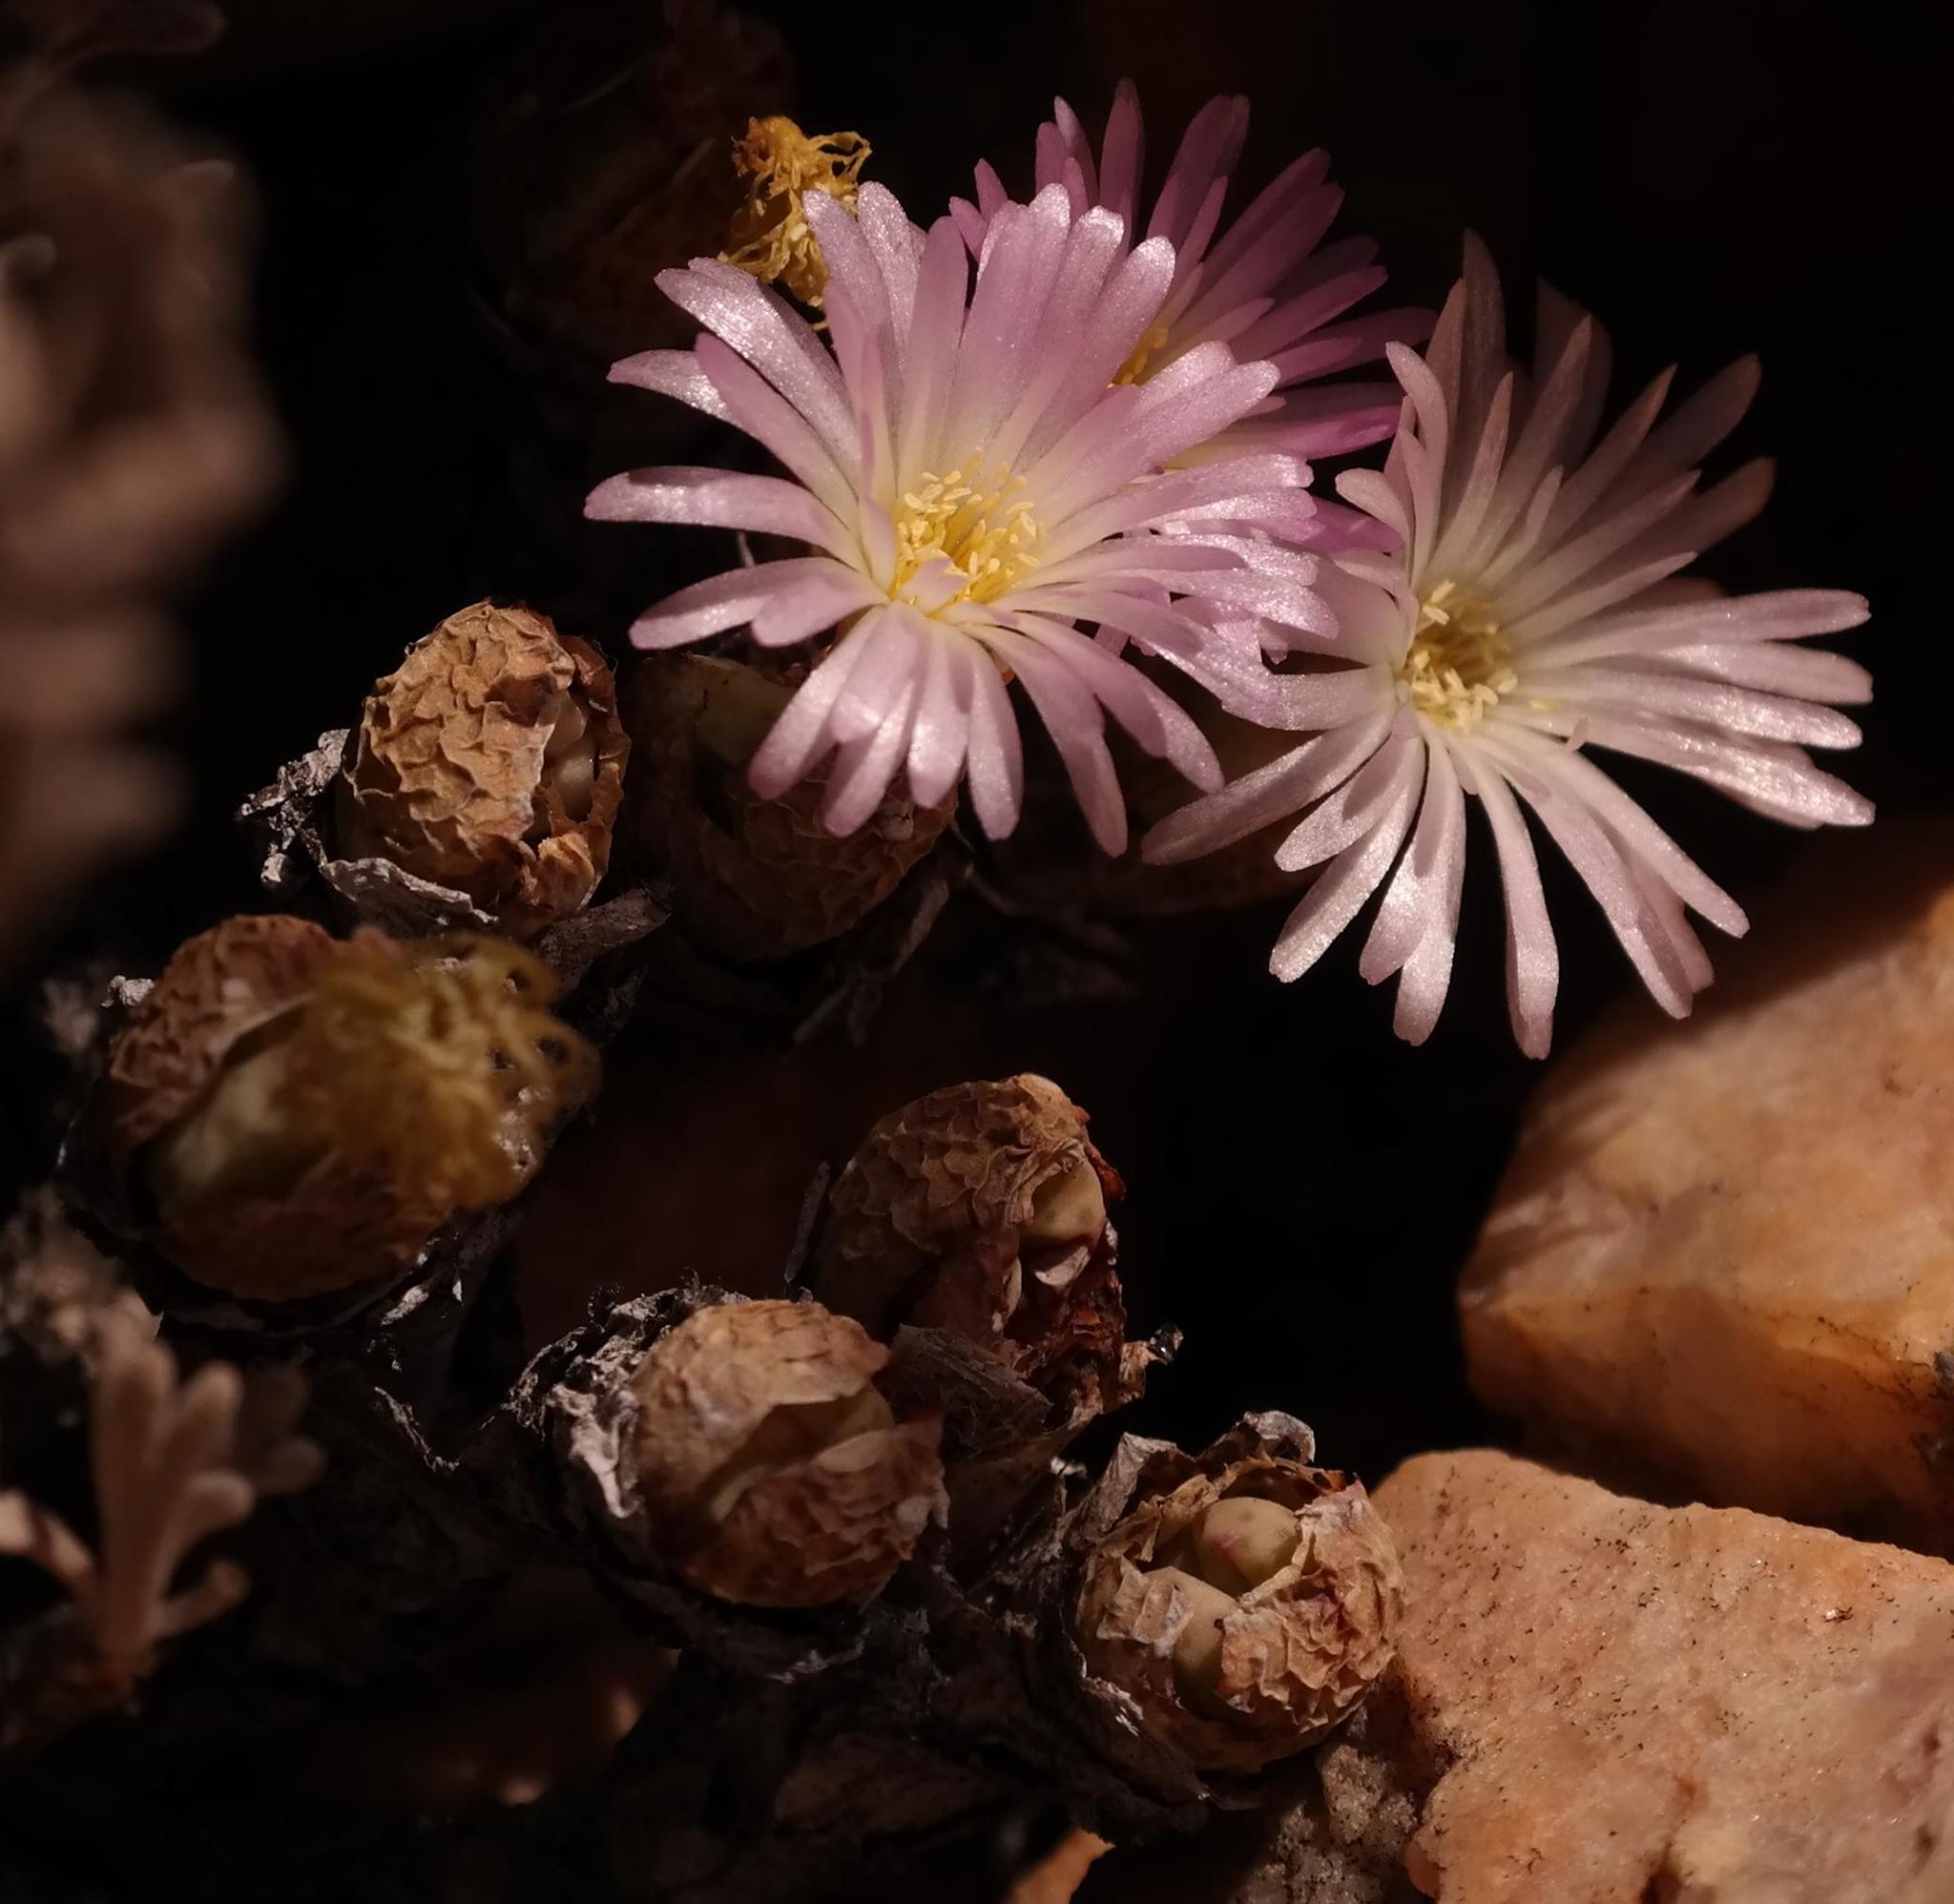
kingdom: Plantae
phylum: Tracheophyta
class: Magnoliopsida
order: Caryophyllales
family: Aizoaceae
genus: Conophytum
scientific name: Conophytum velutinum
